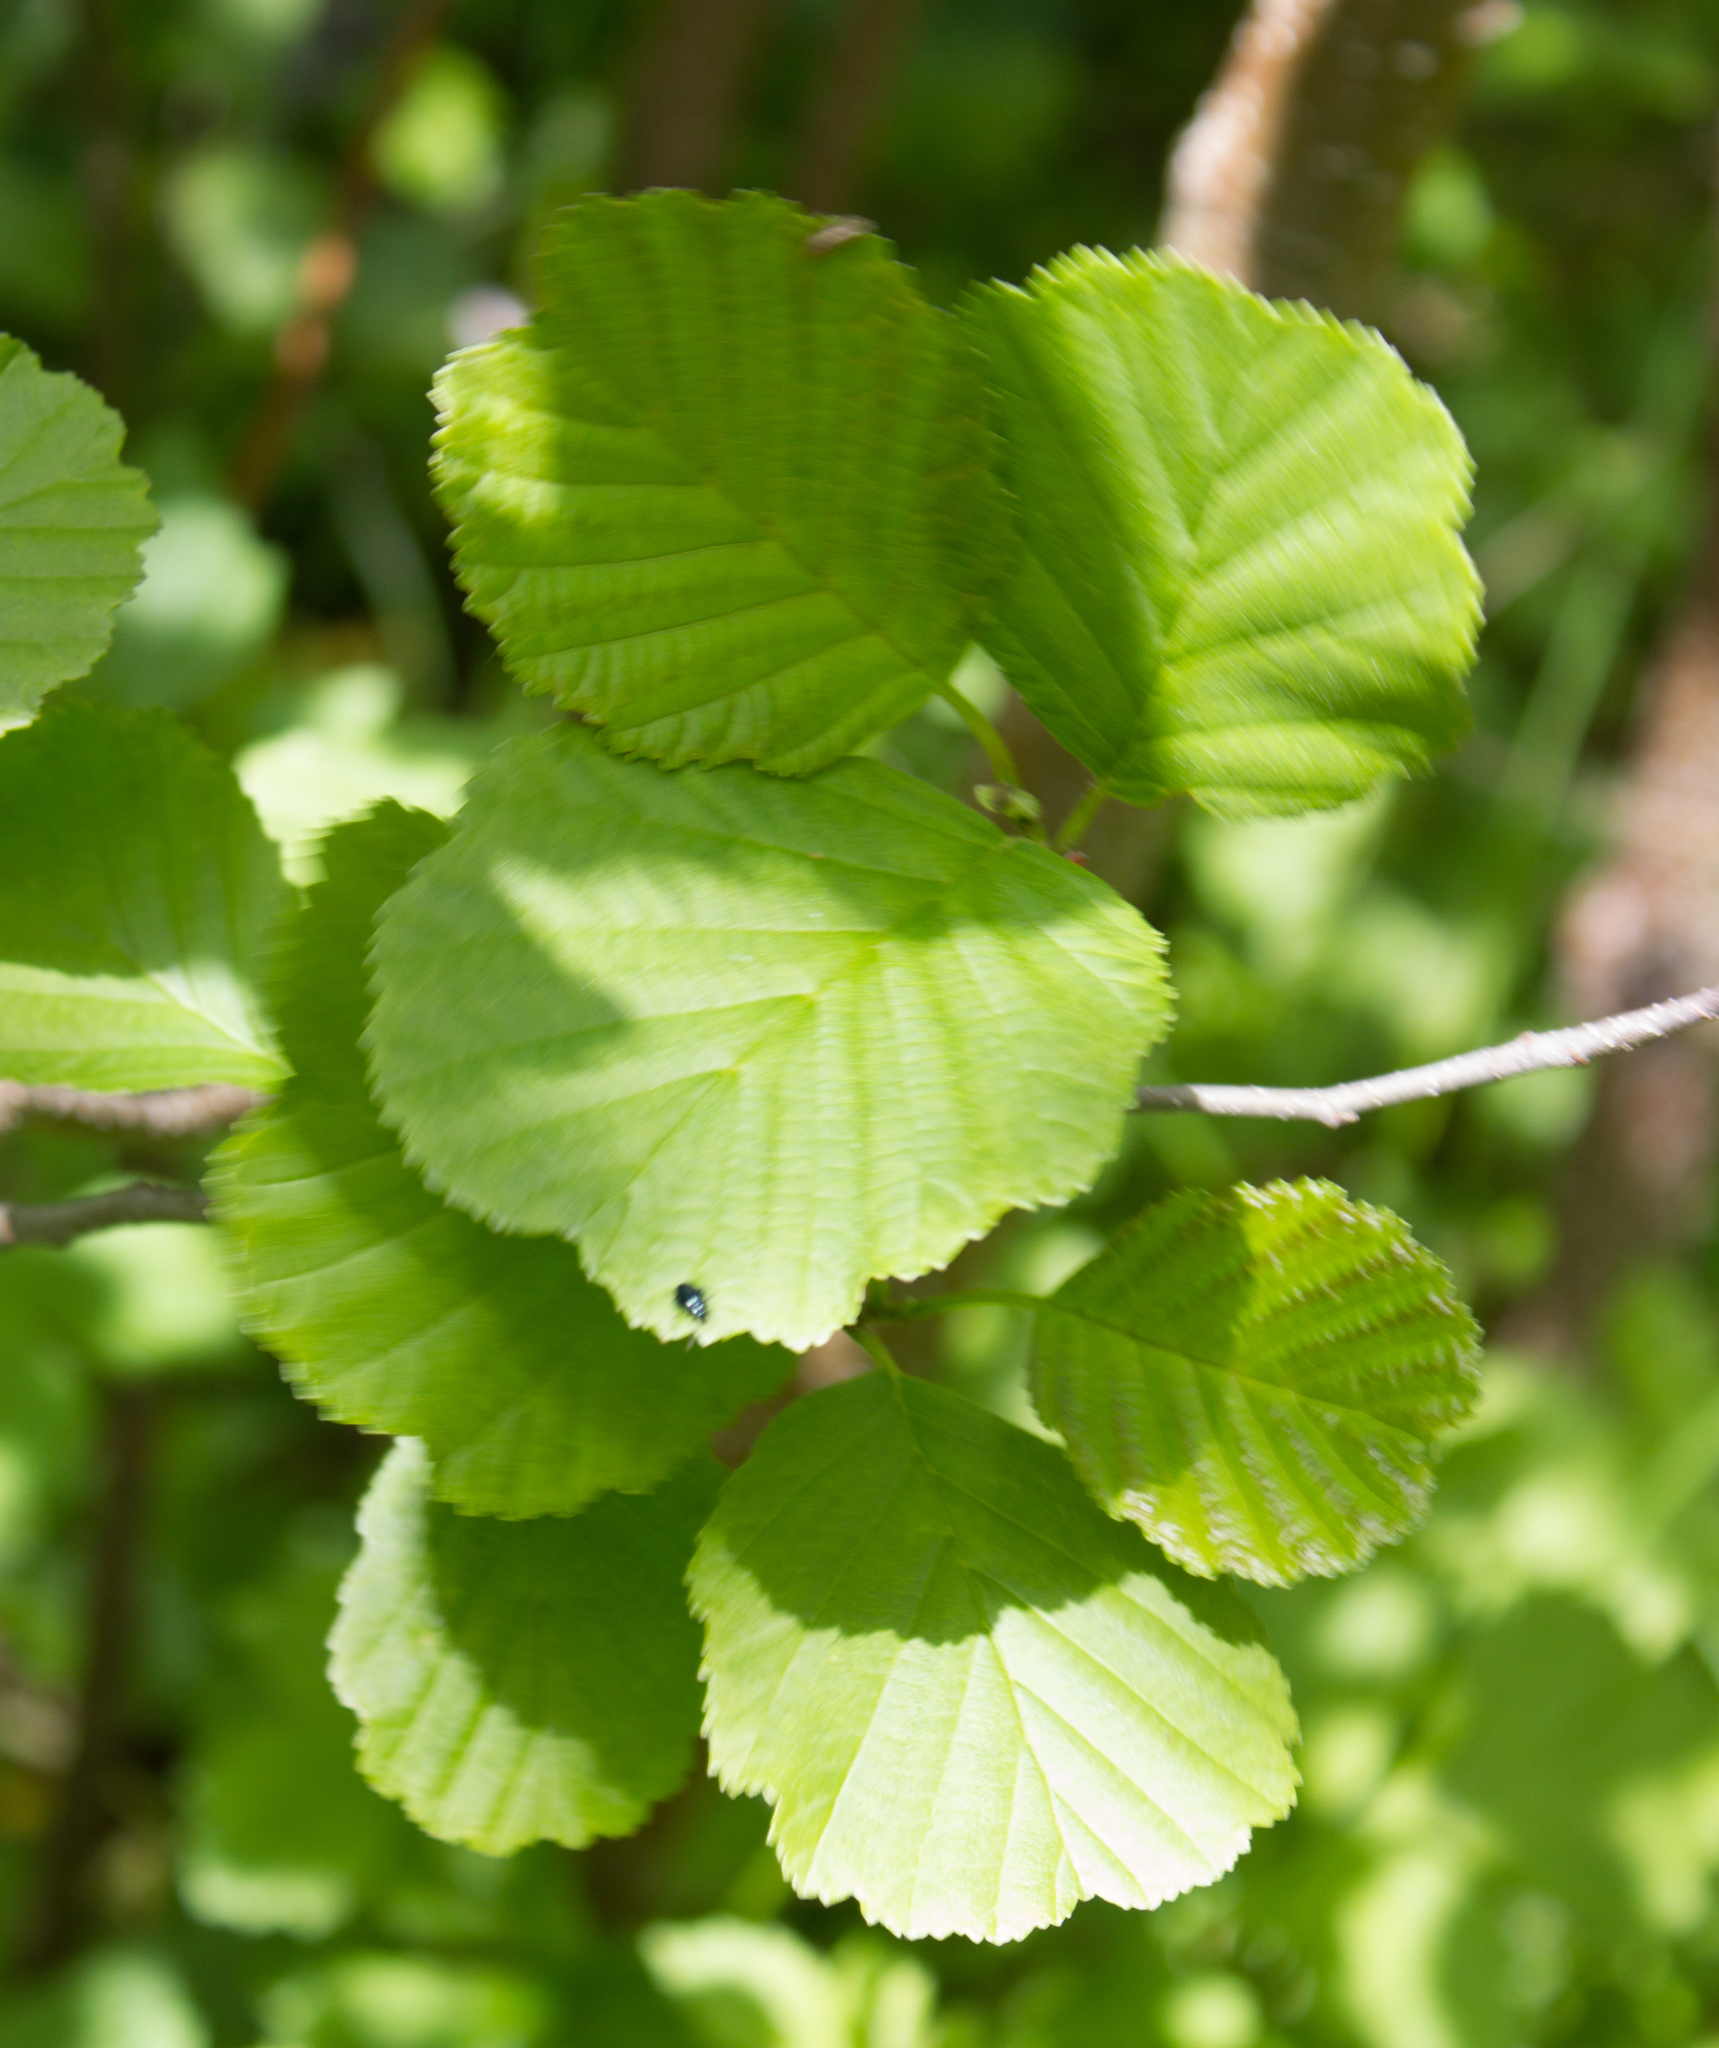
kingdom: Plantae
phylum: Tracheophyta
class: Magnoliopsida
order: Fagales
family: Betulaceae
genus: Alnus
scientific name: Alnus glutinosa
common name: Black alder
